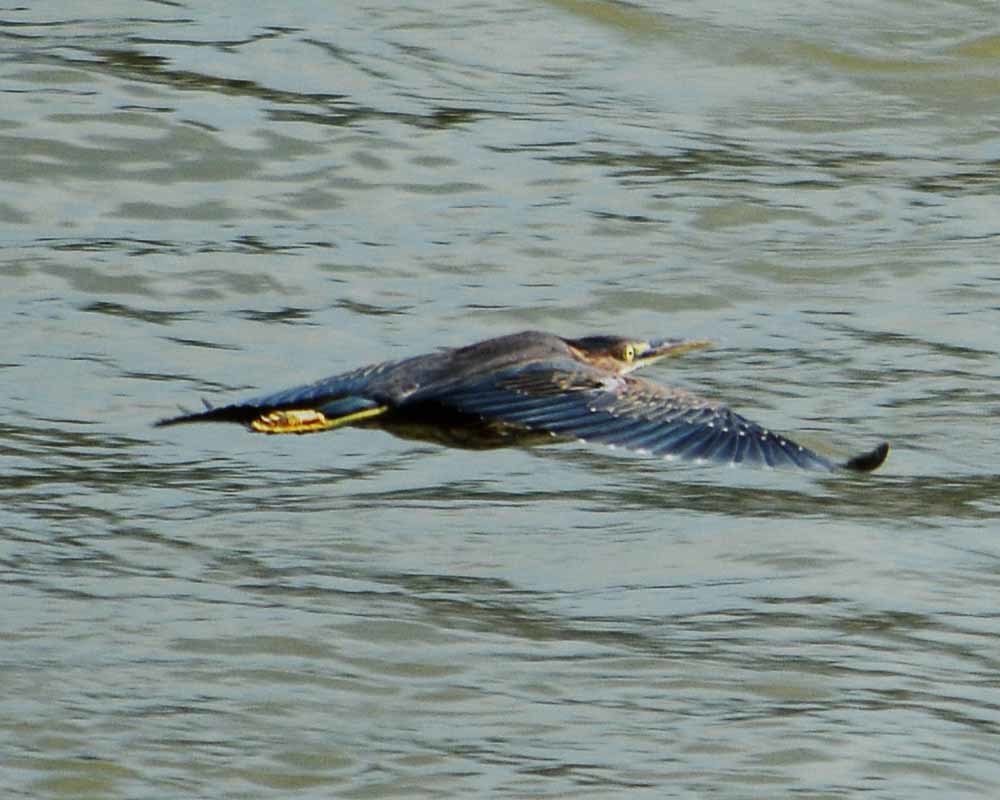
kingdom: Animalia
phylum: Chordata
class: Aves
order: Pelecaniformes
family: Ardeidae
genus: Butorides
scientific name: Butorides virescens
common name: Green heron
